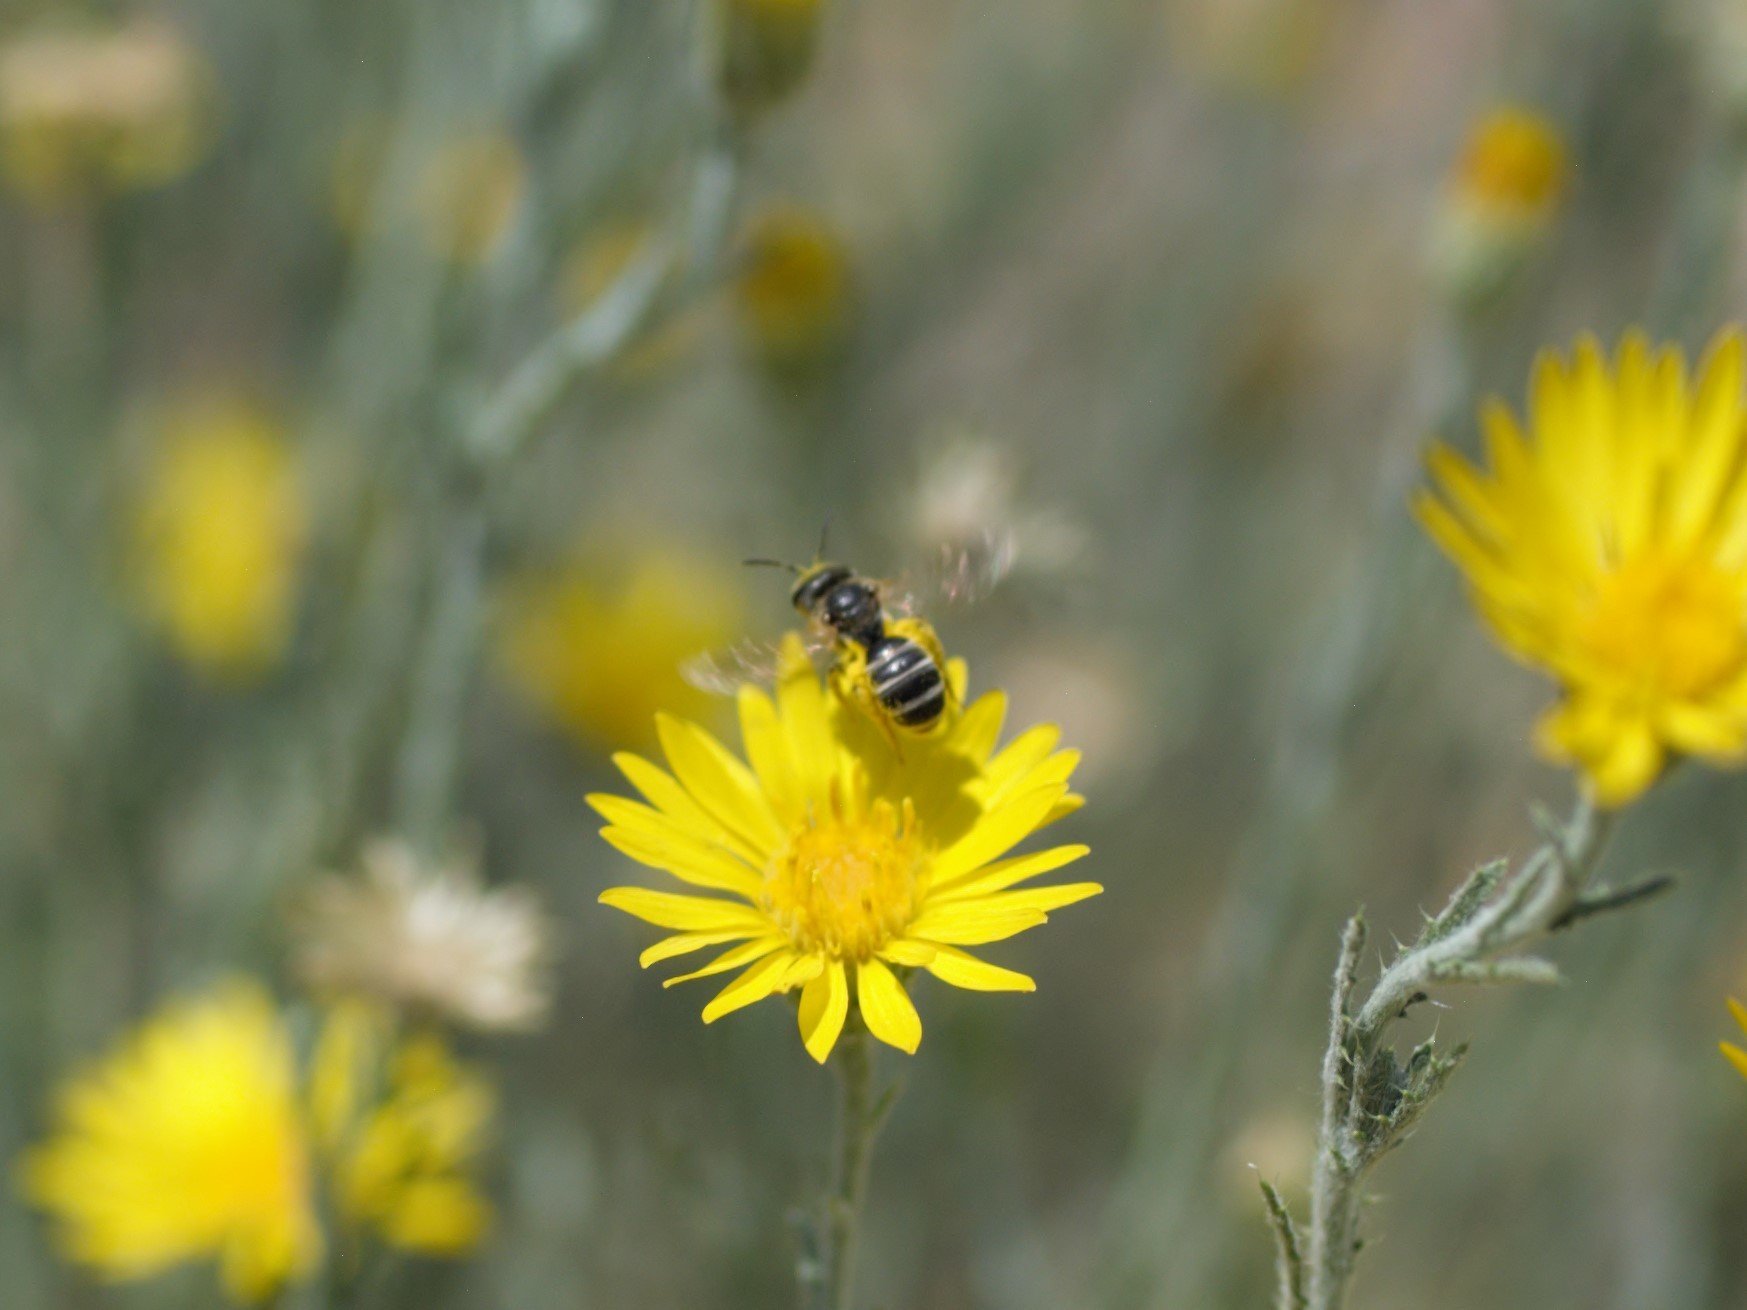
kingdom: Animalia
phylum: Arthropoda
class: Insecta
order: Hymenoptera
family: Halictidae
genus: Halictus
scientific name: Halictus ligatus
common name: Ligated furrow bee
